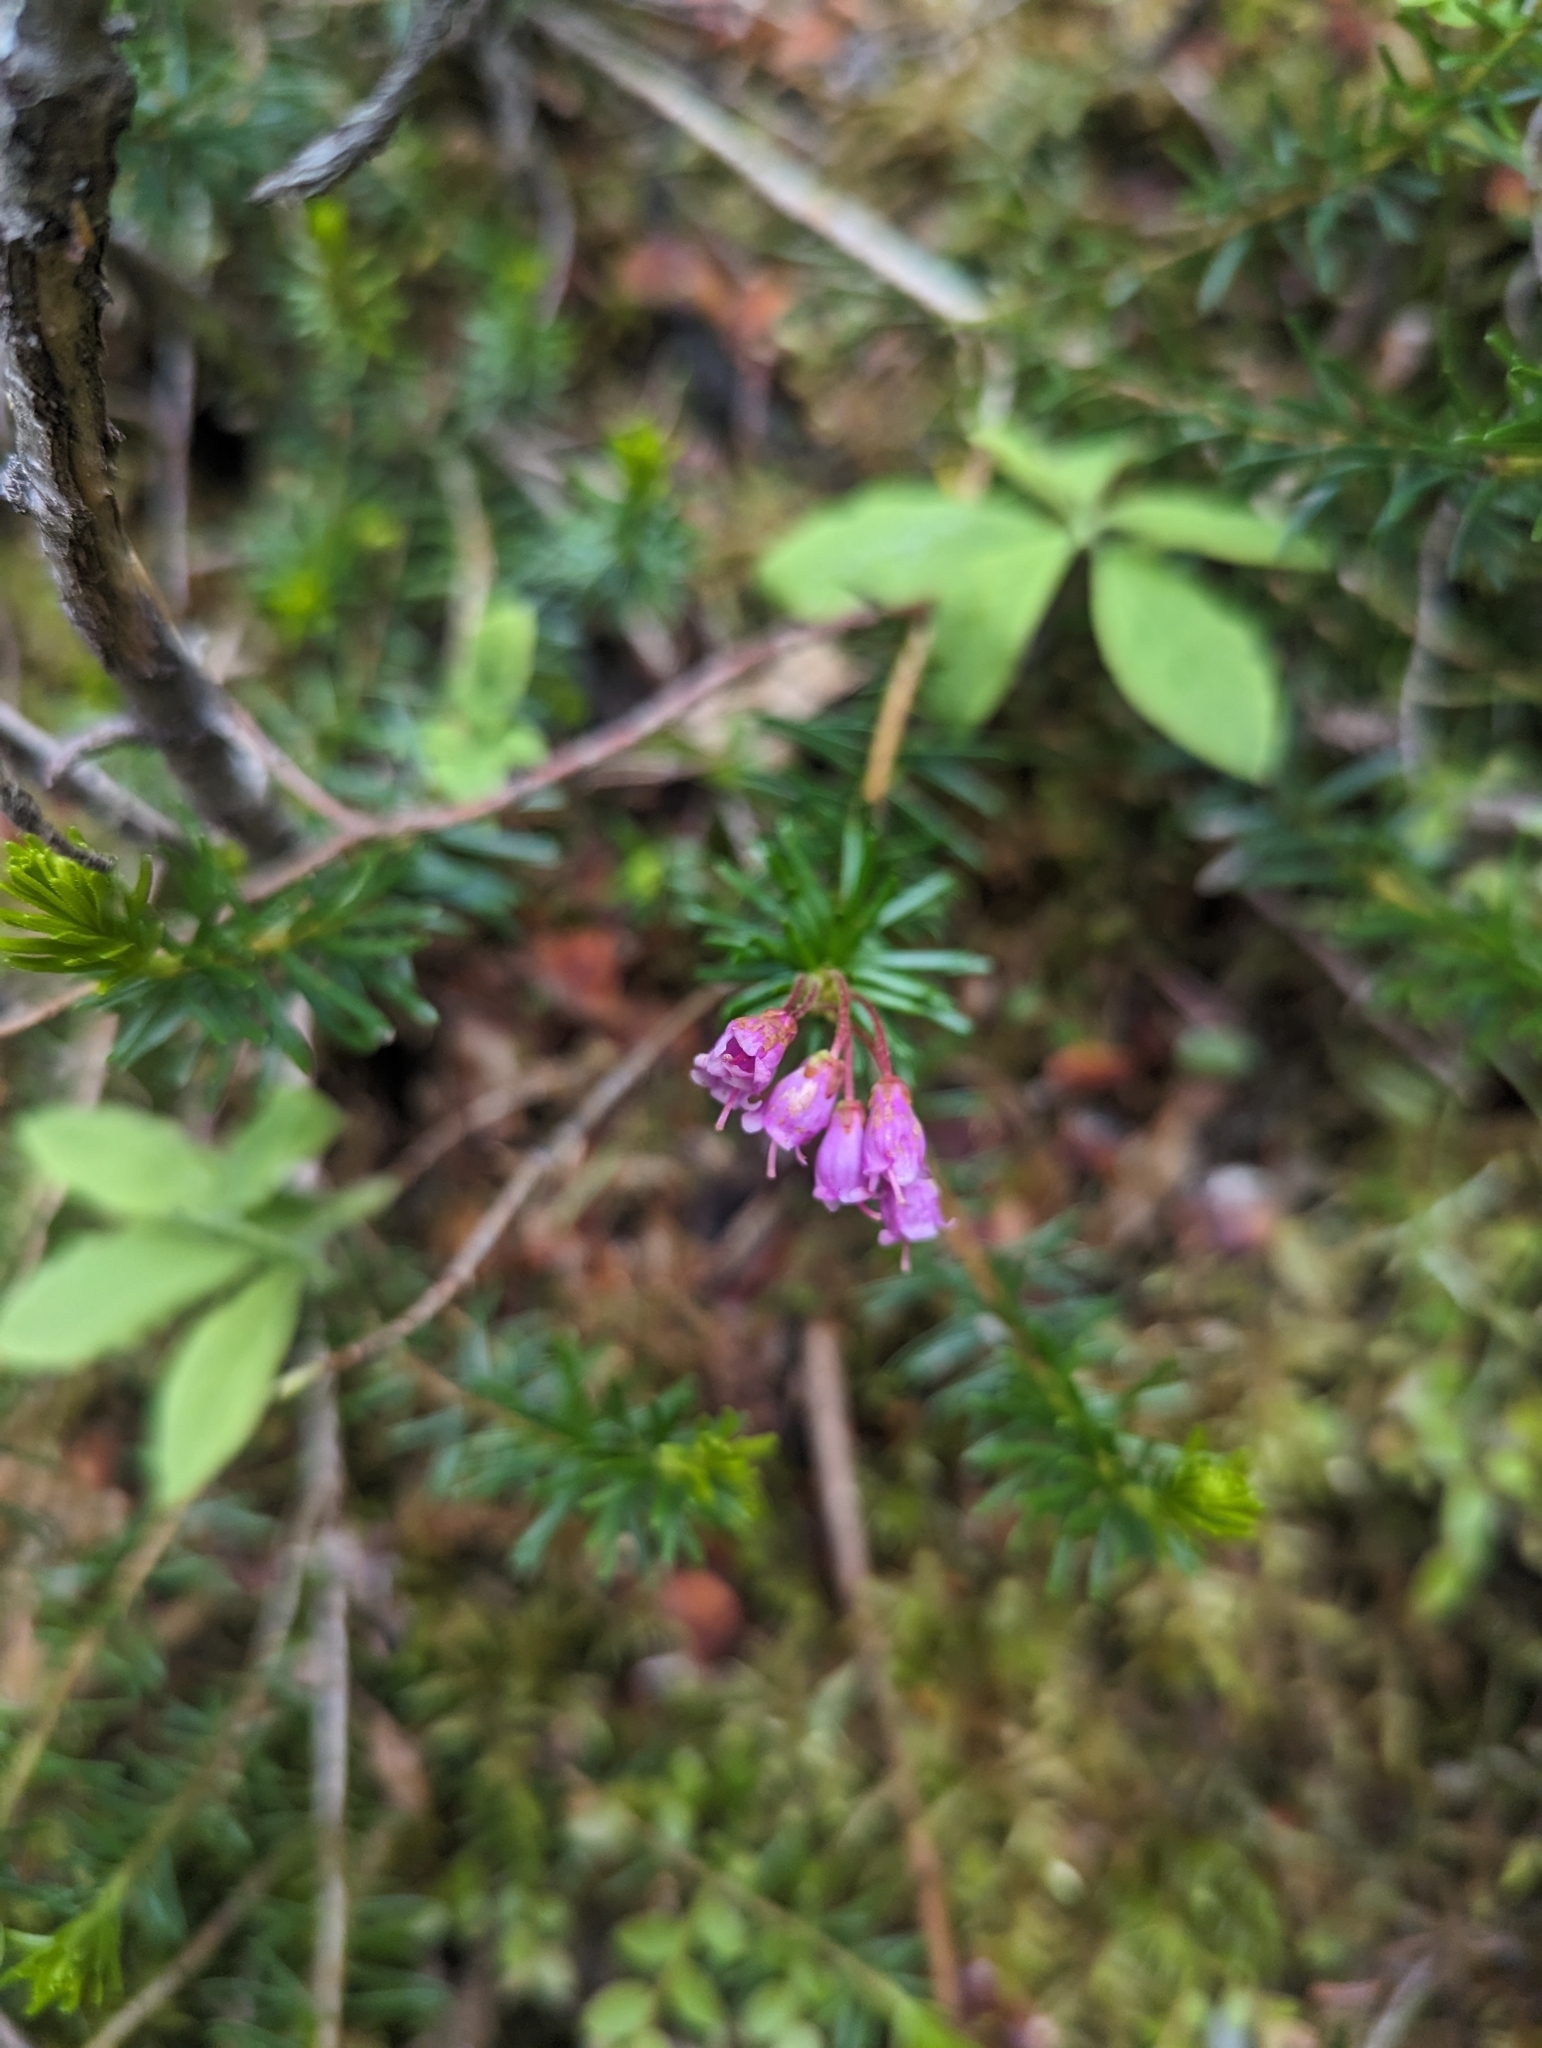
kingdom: Plantae
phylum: Tracheophyta
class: Magnoliopsida
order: Ericales
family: Ericaceae
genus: Phyllodoce
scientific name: Phyllodoce empetriformis
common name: Pink mountain heather
